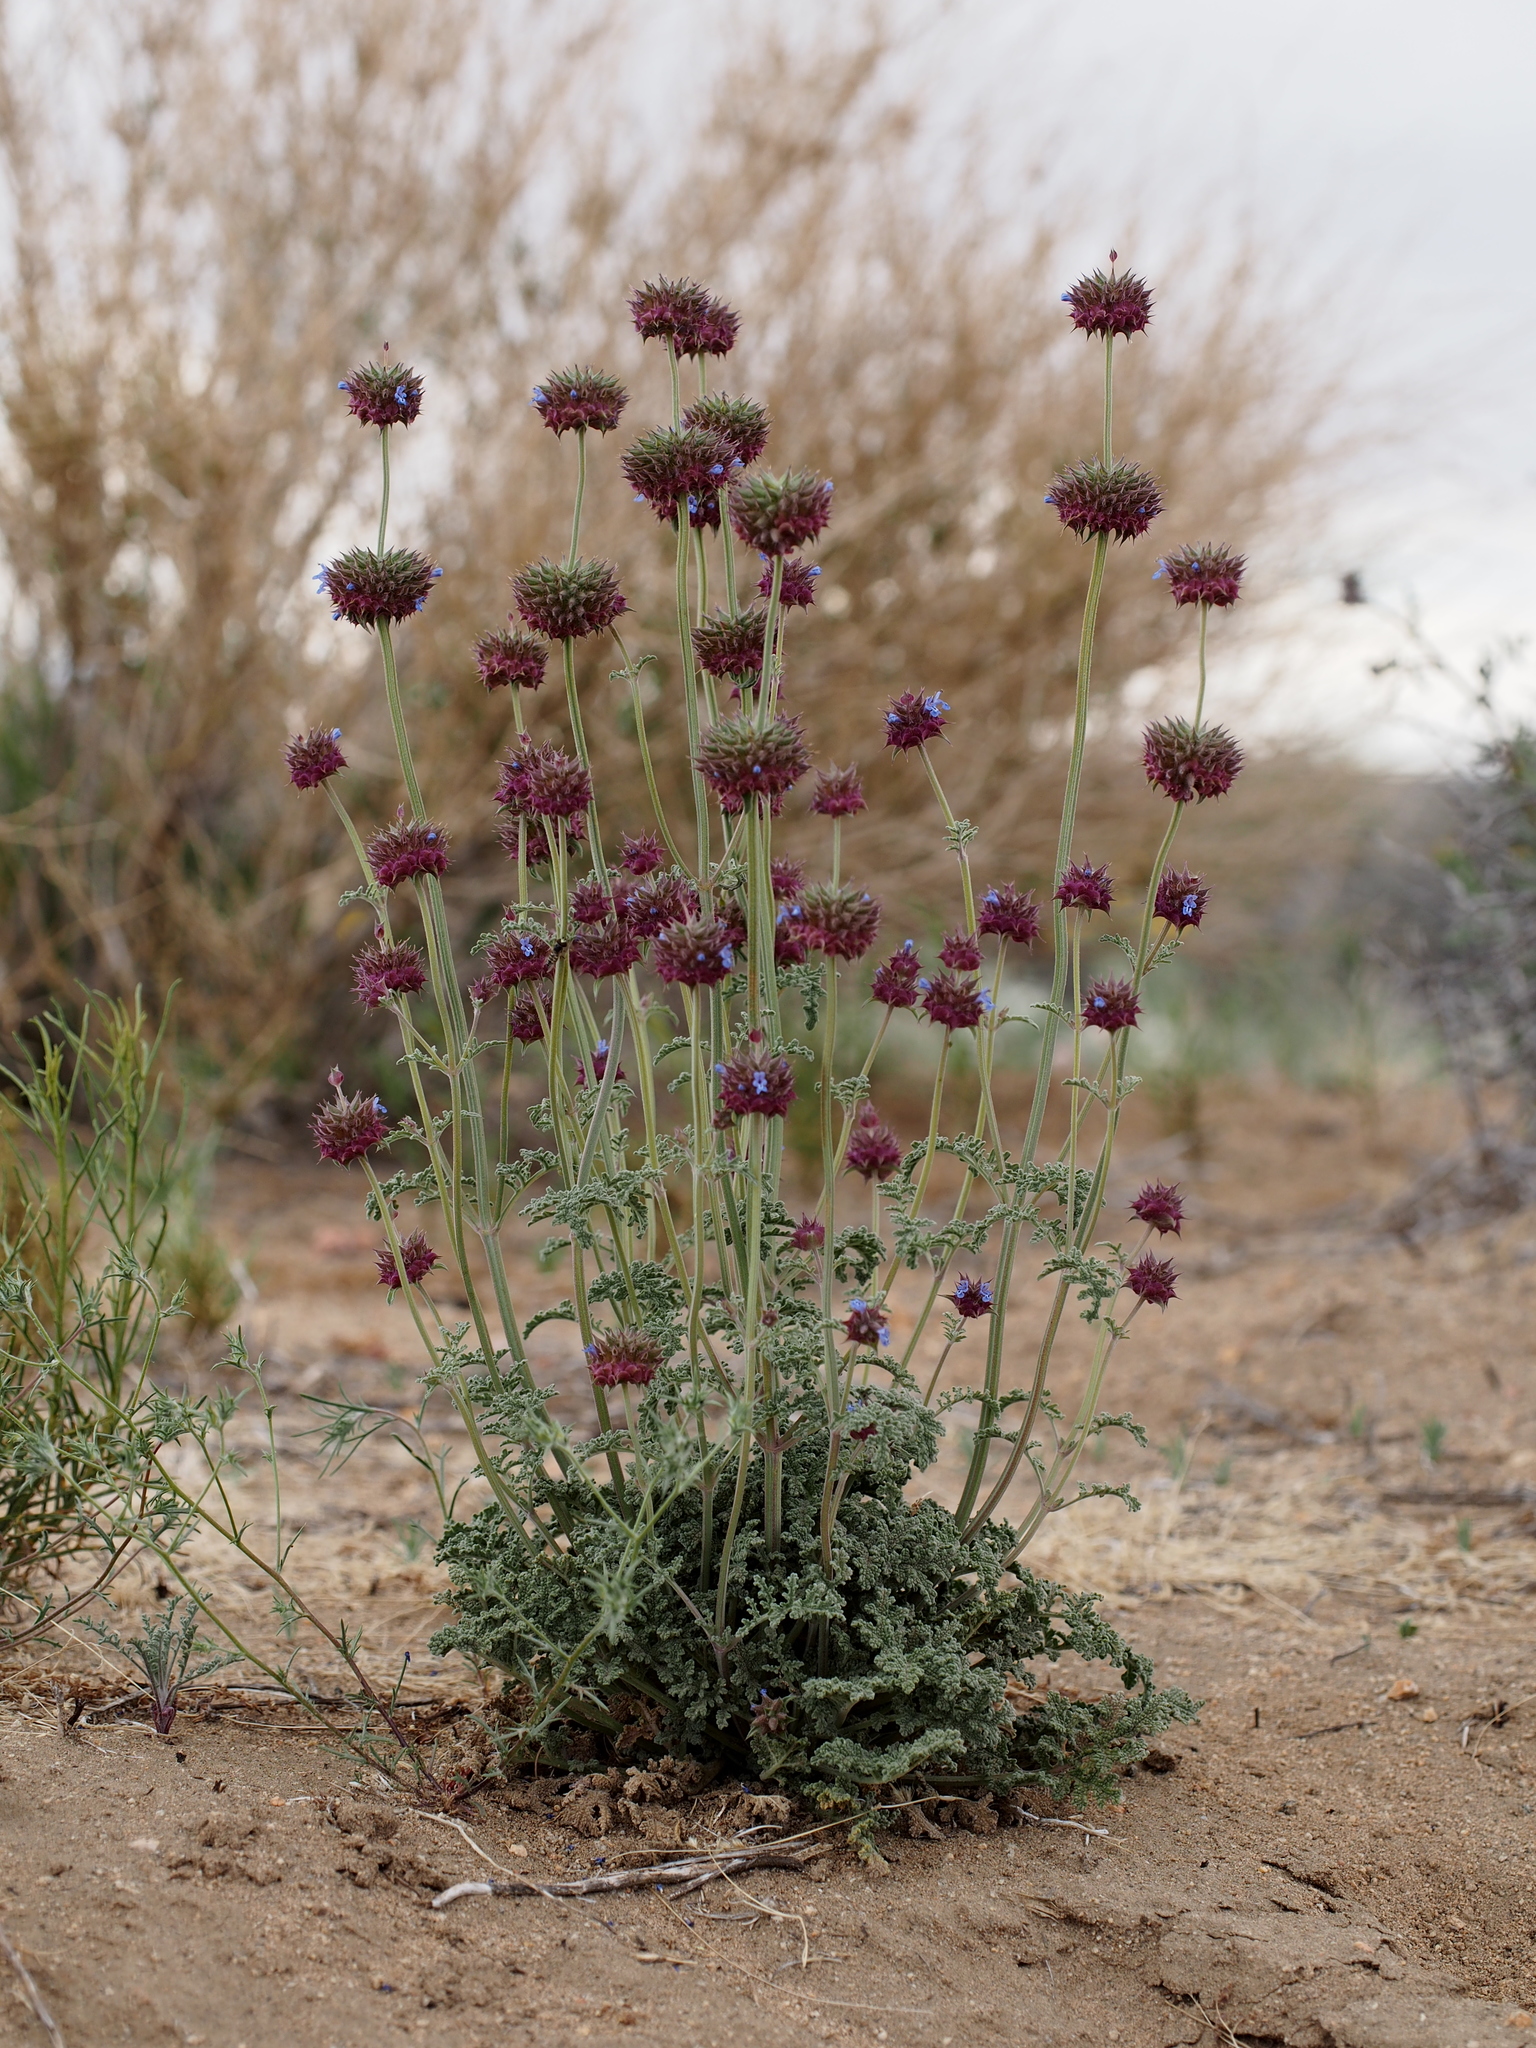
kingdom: Plantae
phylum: Tracheophyta
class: Magnoliopsida
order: Lamiales
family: Lamiaceae
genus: Salvia
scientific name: Salvia columbariae
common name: Chia
